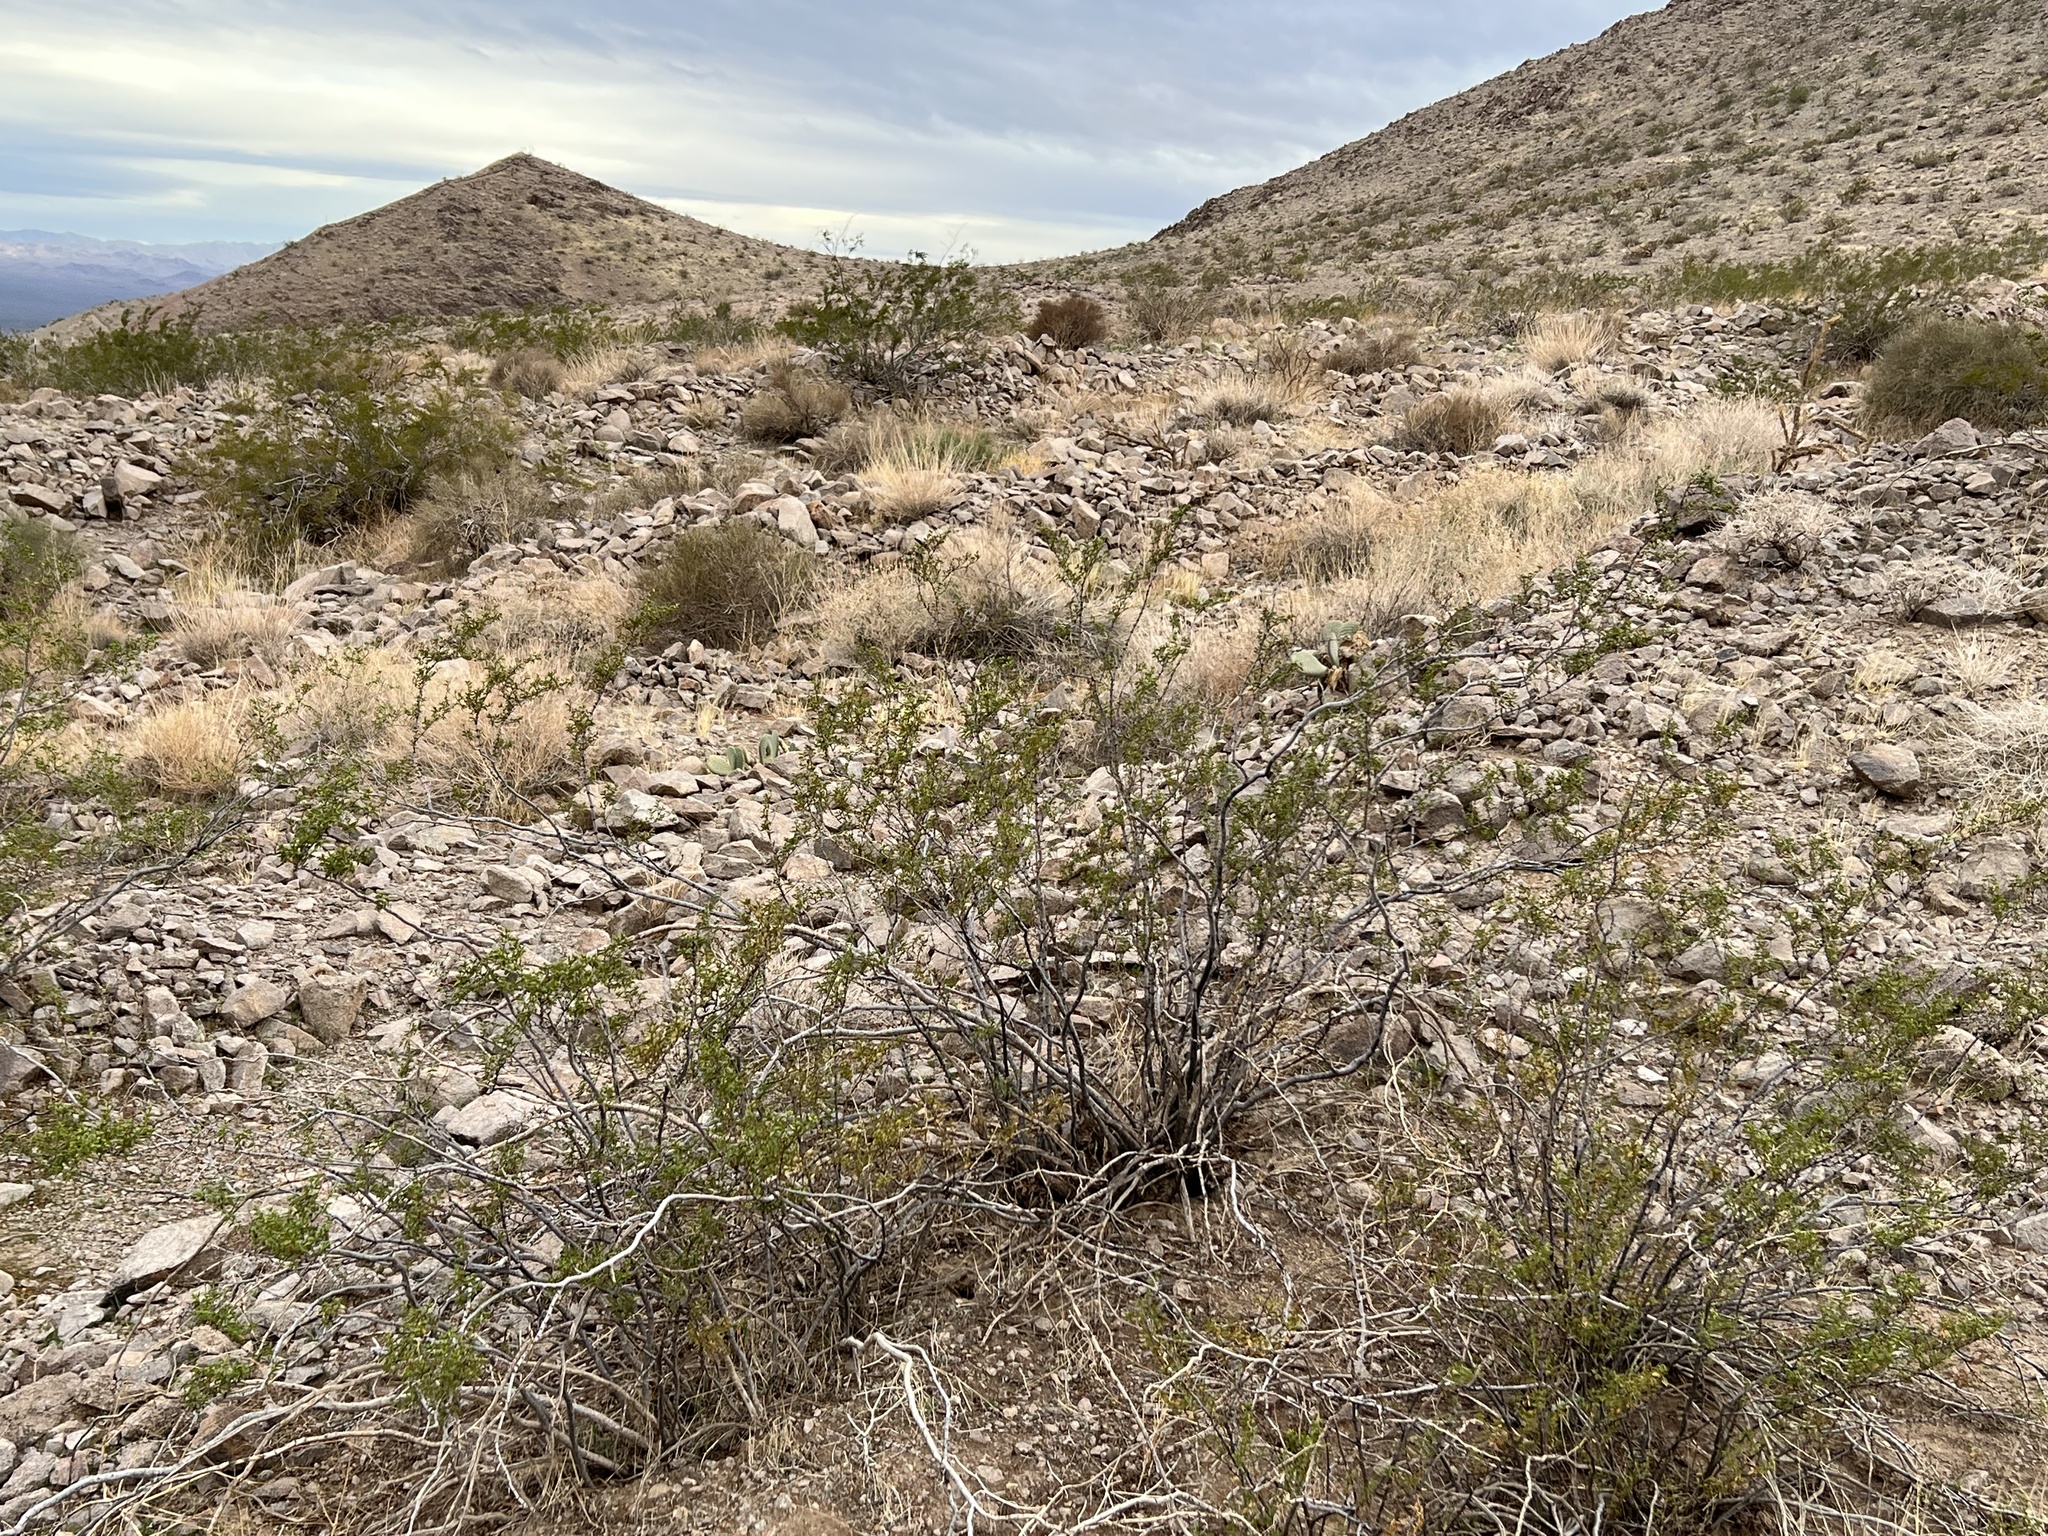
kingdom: Plantae
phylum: Tracheophyta
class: Magnoliopsida
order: Zygophyllales
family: Zygophyllaceae
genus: Larrea
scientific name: Larrea tridentata
